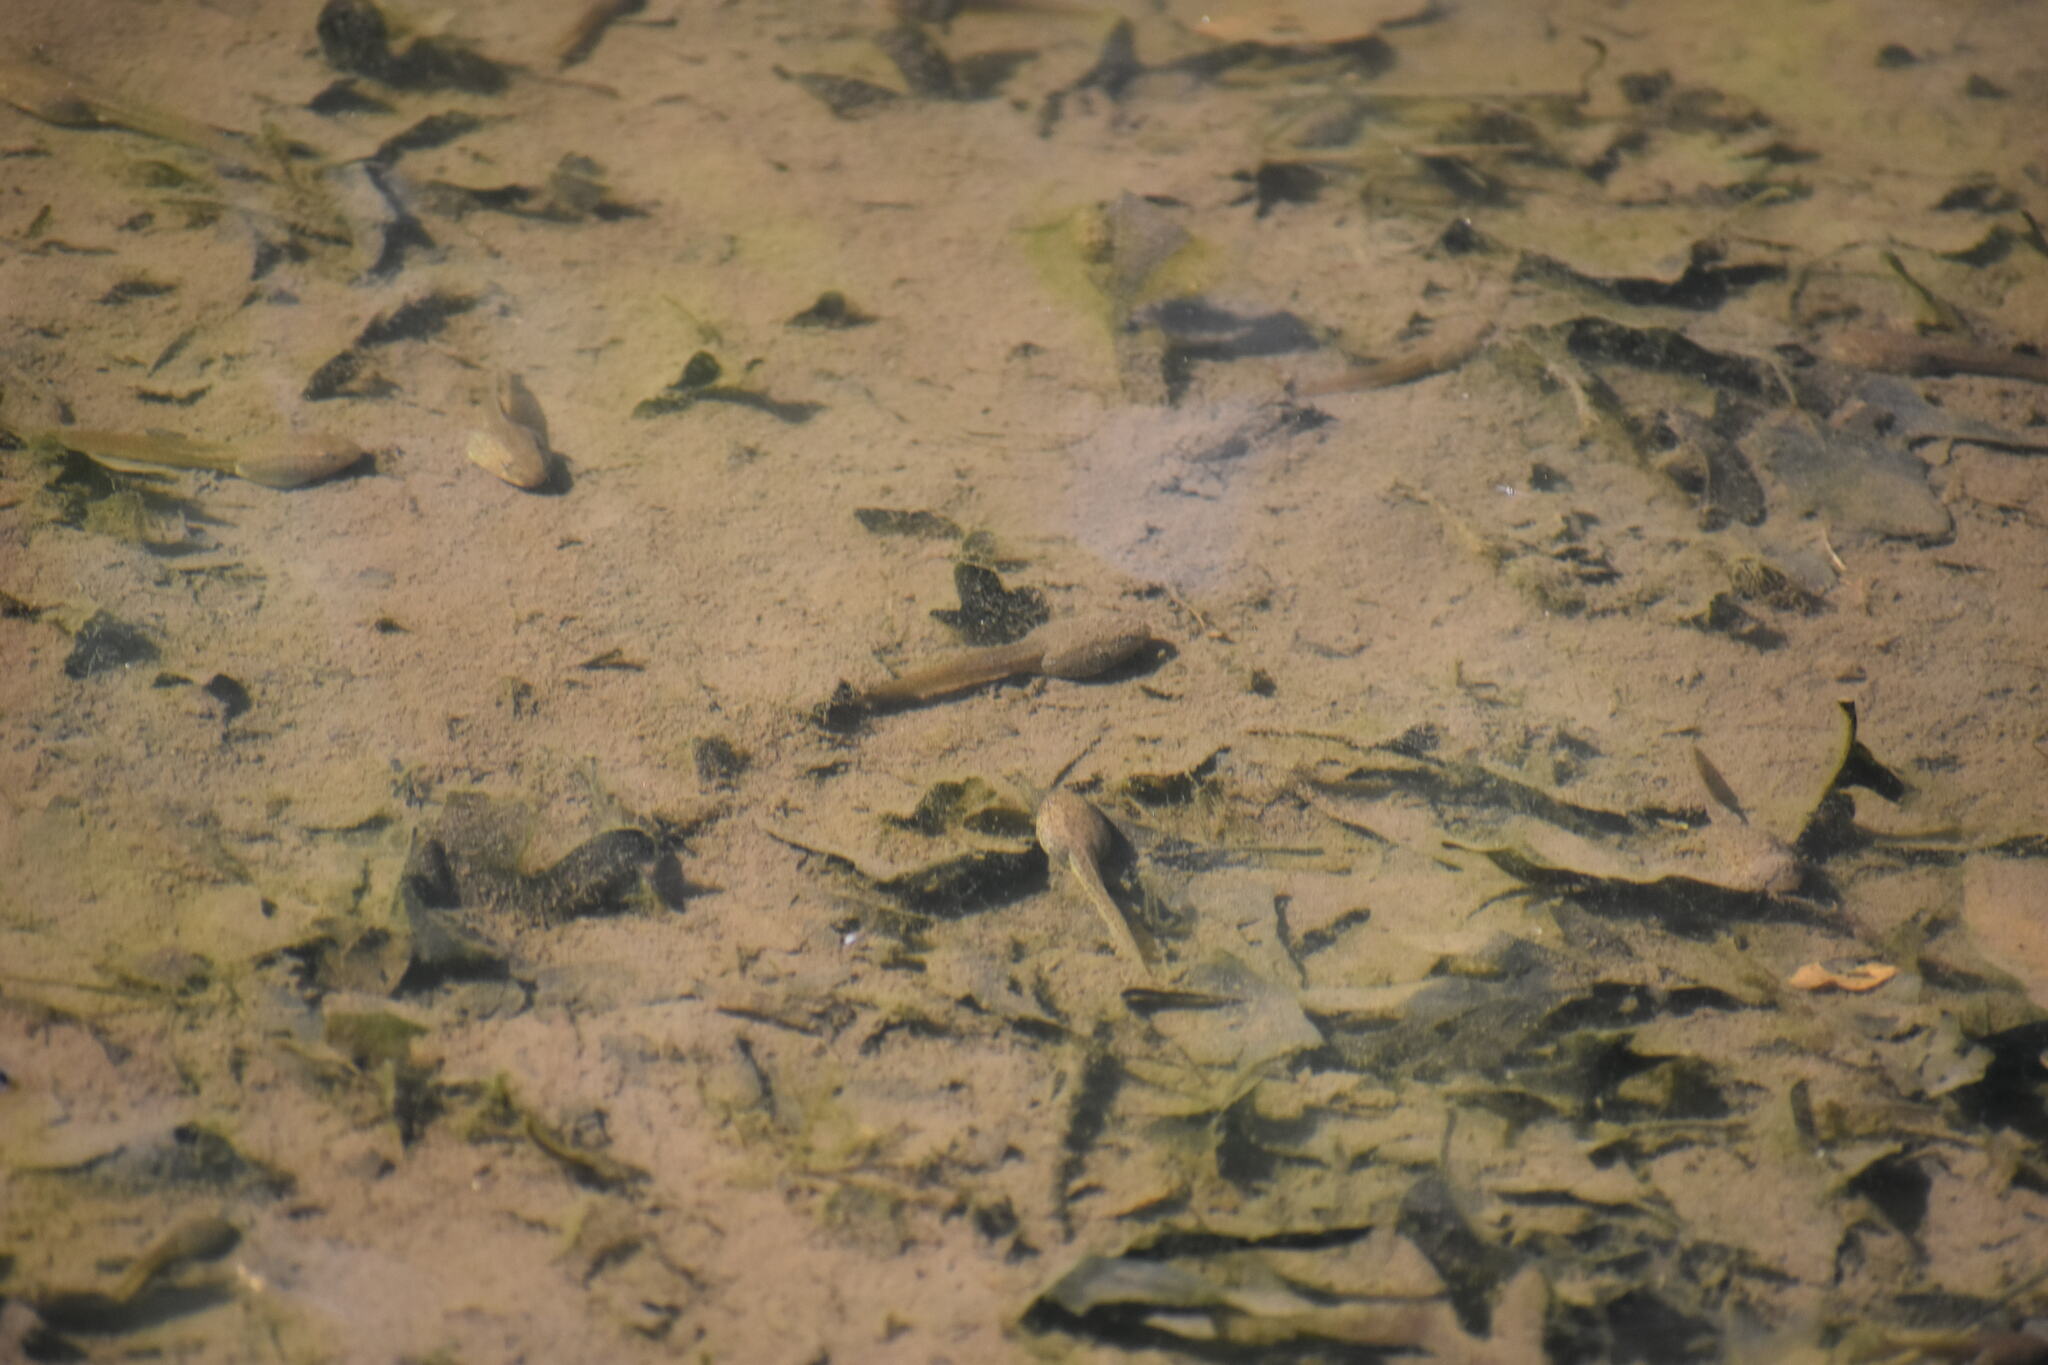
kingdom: Animalia
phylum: Chordata
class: Amphibia
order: Anura
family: Ranidae
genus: Lithobates
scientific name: Lithobates catesbeianus
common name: American bullfrog
